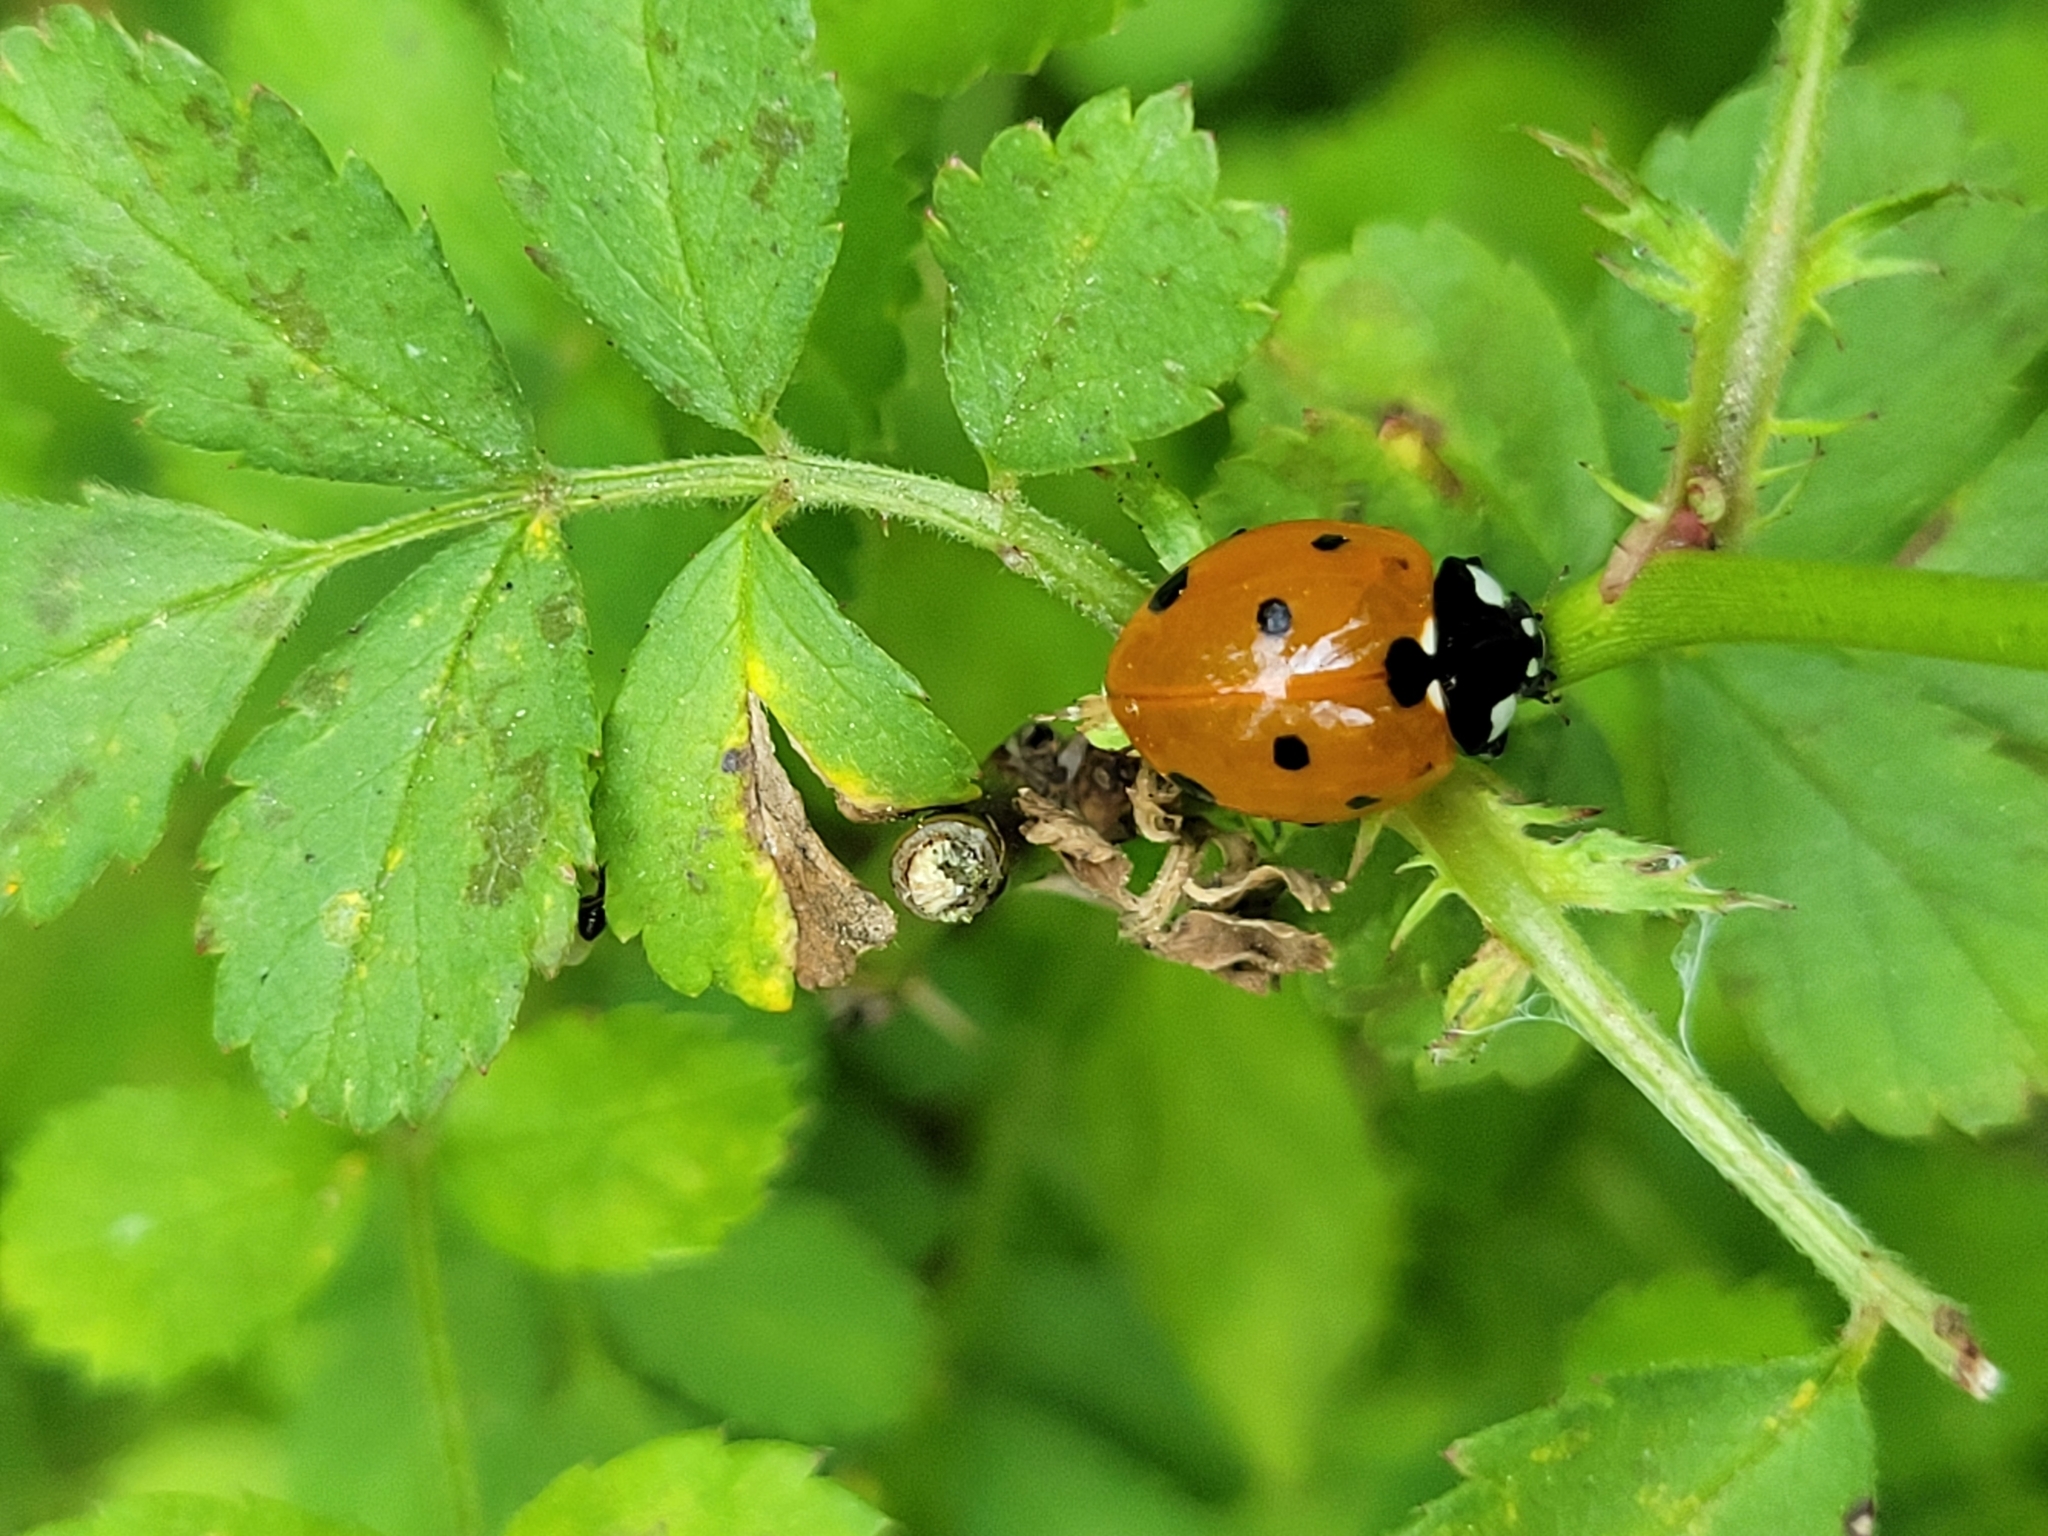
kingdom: Animalia
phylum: Arthropoda
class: Insecta
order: Coleoptera
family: Coccinellidae
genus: Coccinella
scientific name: Coccinella septempunctata
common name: Sevenspotted lady beetle
